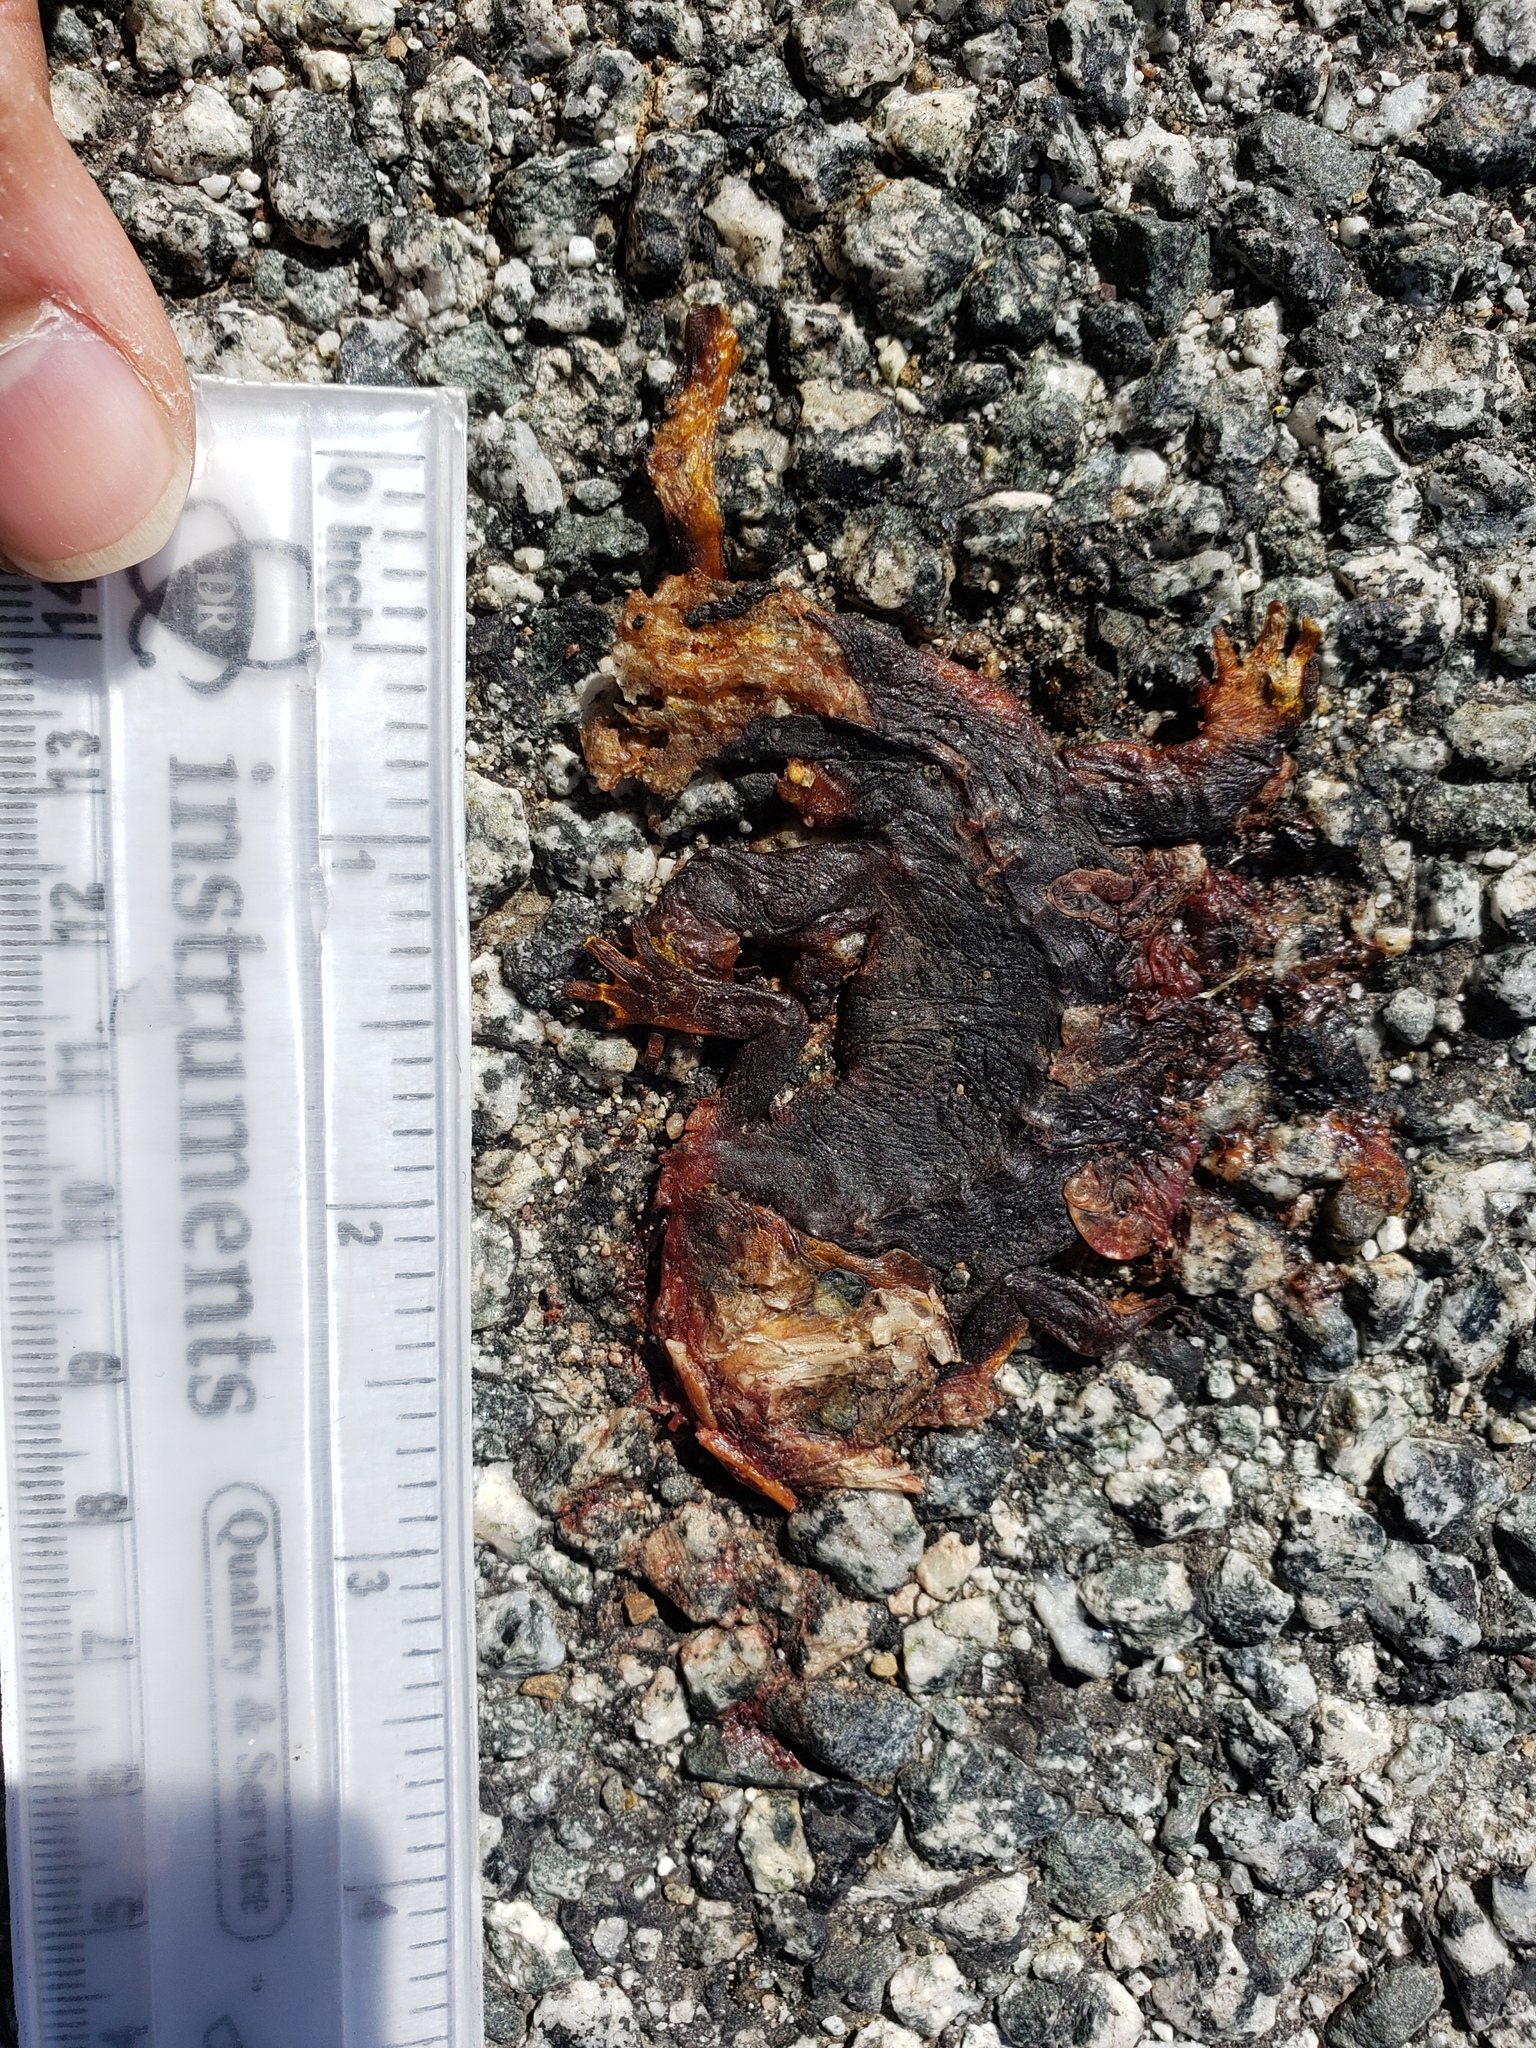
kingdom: Animalia
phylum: Chordata
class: Amphibia
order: Caudata
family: Salamandridae
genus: Taricha
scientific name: Taricha
